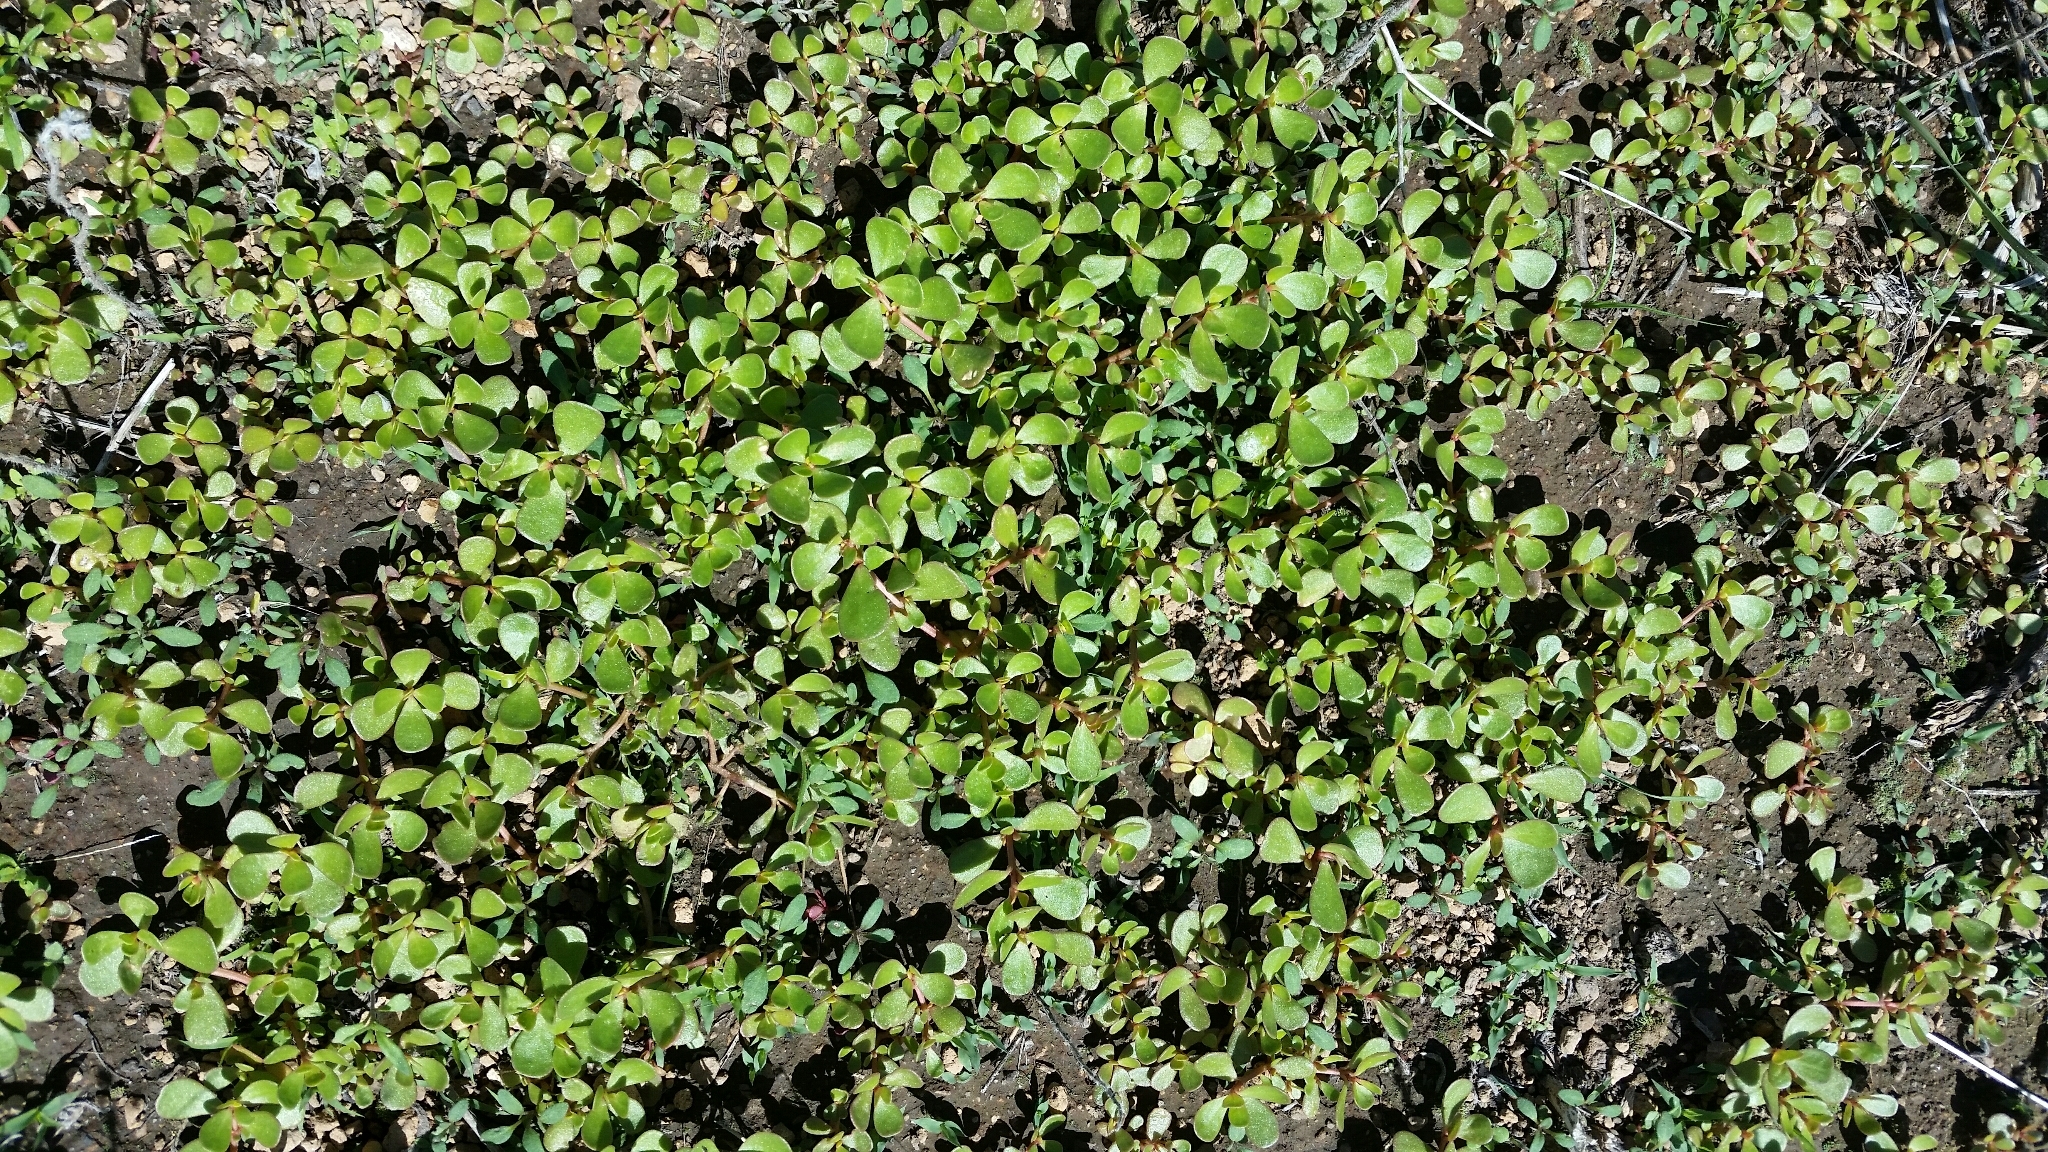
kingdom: Plantae
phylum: Tracheophyta
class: Magnoliopsida
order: Caryophyllales
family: Portulacaceae
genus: Portulaca
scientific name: Portulaca oleracea
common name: Common purslane
